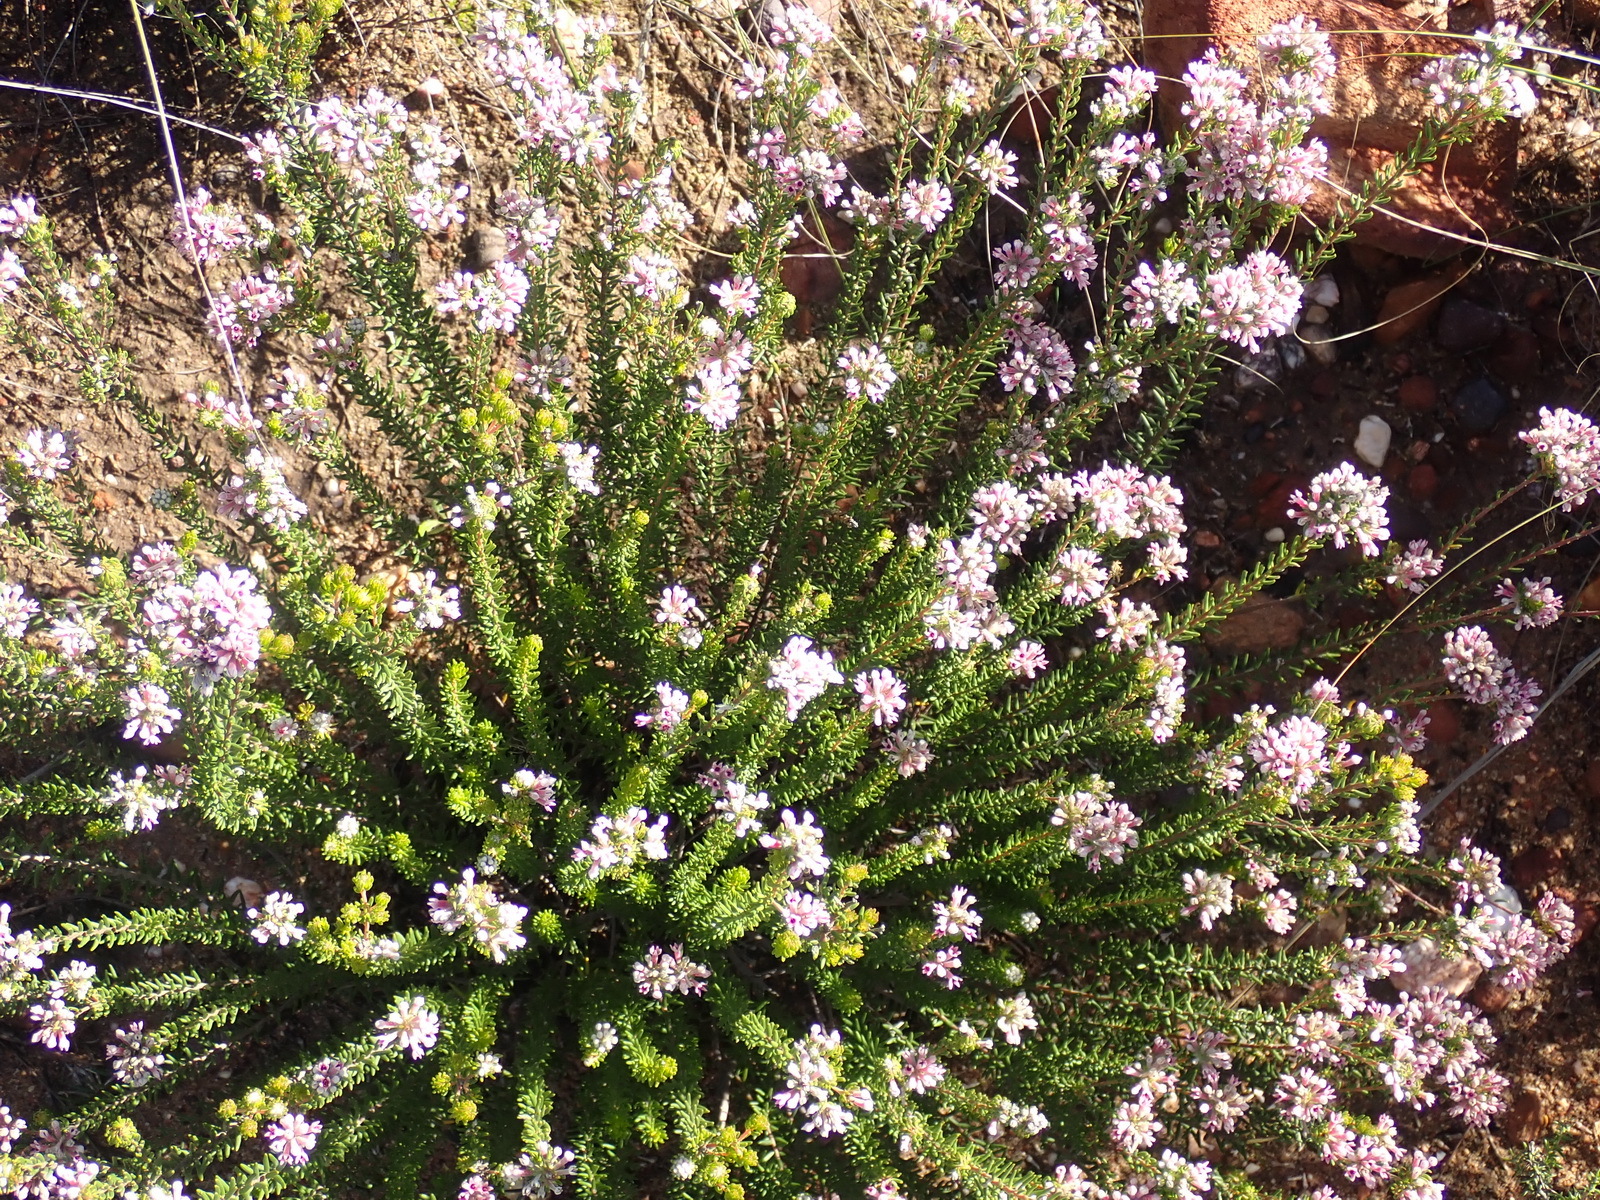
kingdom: Plantae
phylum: Tracheophyta
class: Magnoliopsida
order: Rosales
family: Rhamnaceae
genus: Phylica
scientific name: Phylica lachneaeoides
